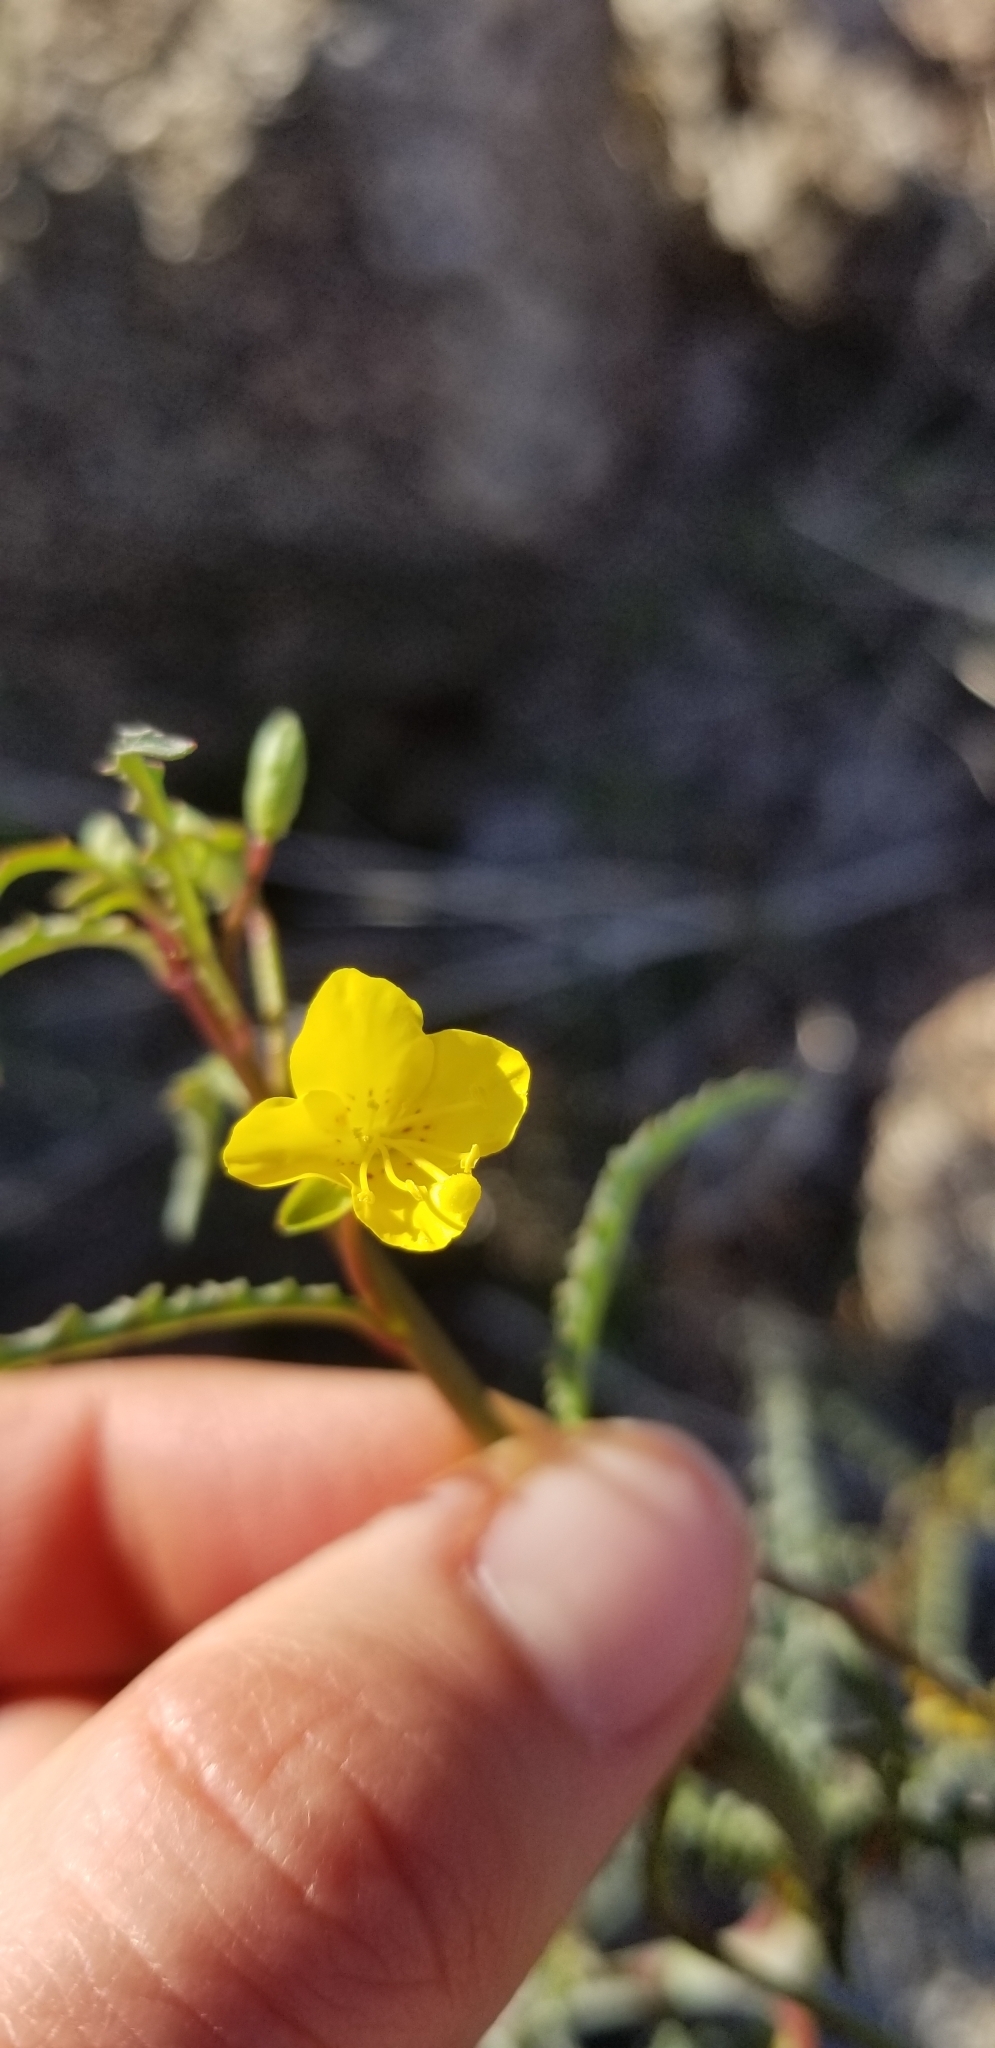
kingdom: Plantae
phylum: Tracheophyta
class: Magnoliopsida
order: Myrtales
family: Onagraceae
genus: Eulobus
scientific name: Eulobus californicus
